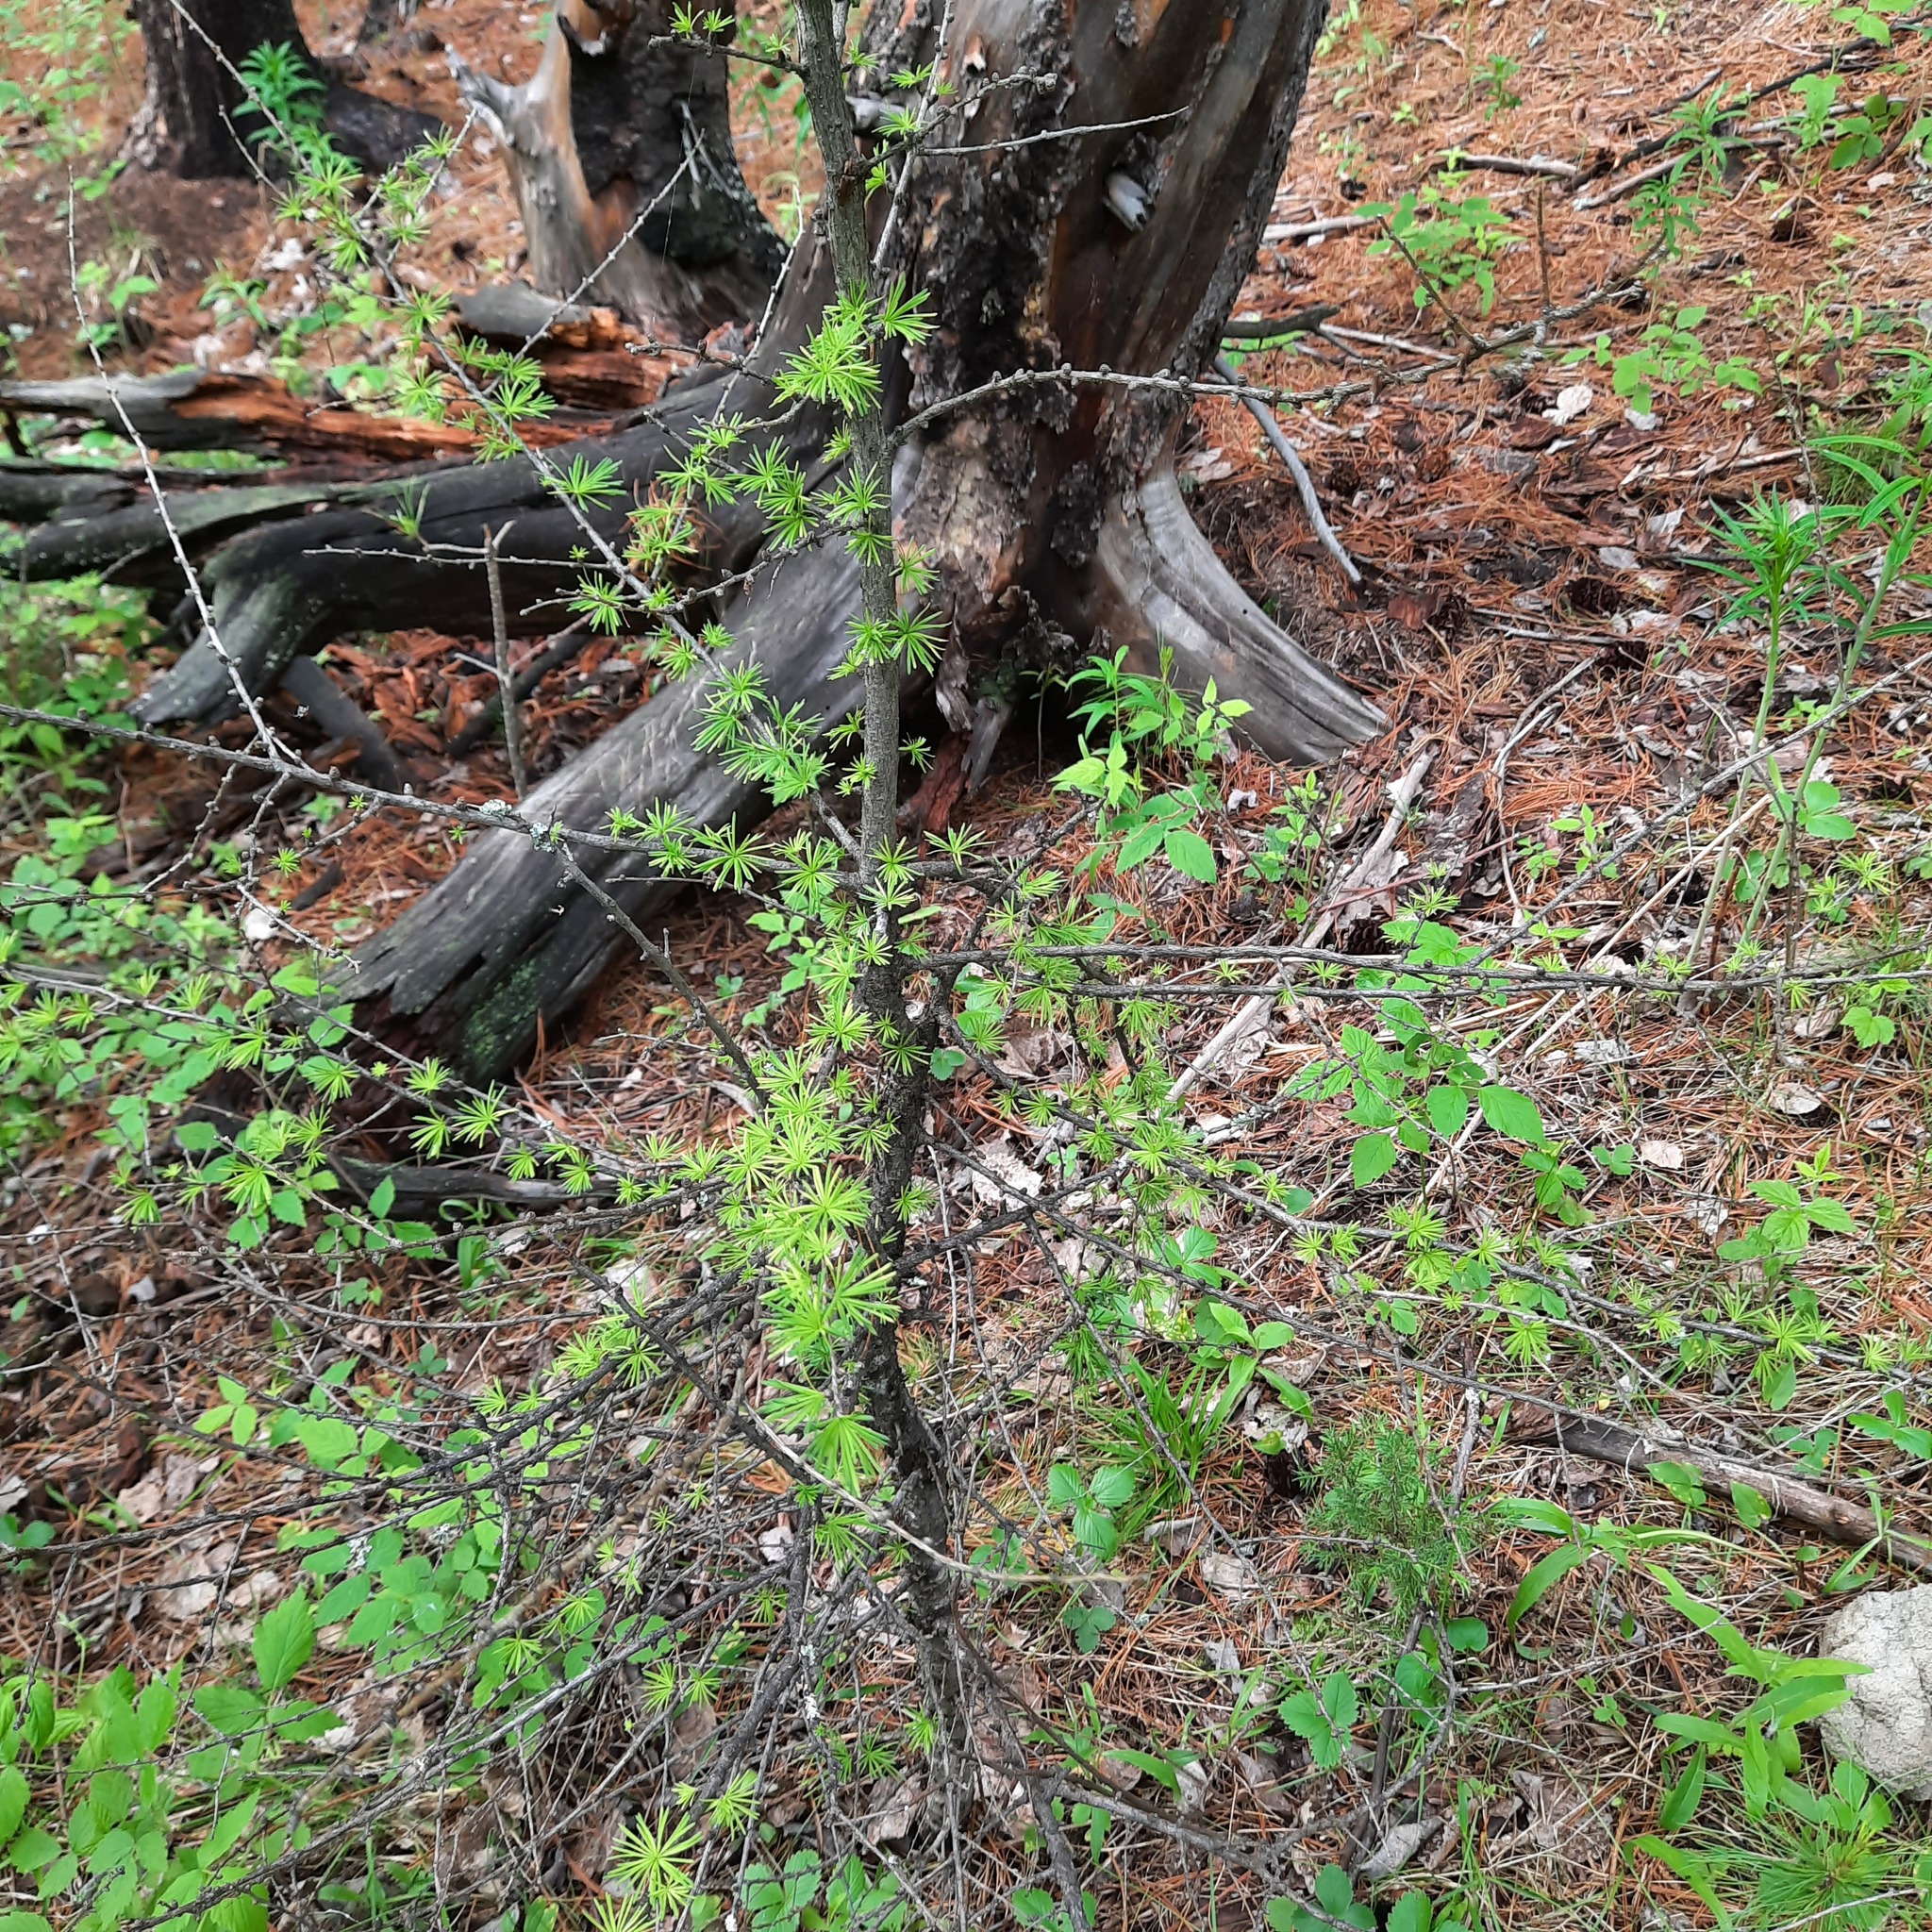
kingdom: Plantae
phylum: Tracheophyta
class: Pinopsida
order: Pinales
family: Pinaceae
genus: Larix
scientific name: Larix sibirica
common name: Siberian larch
